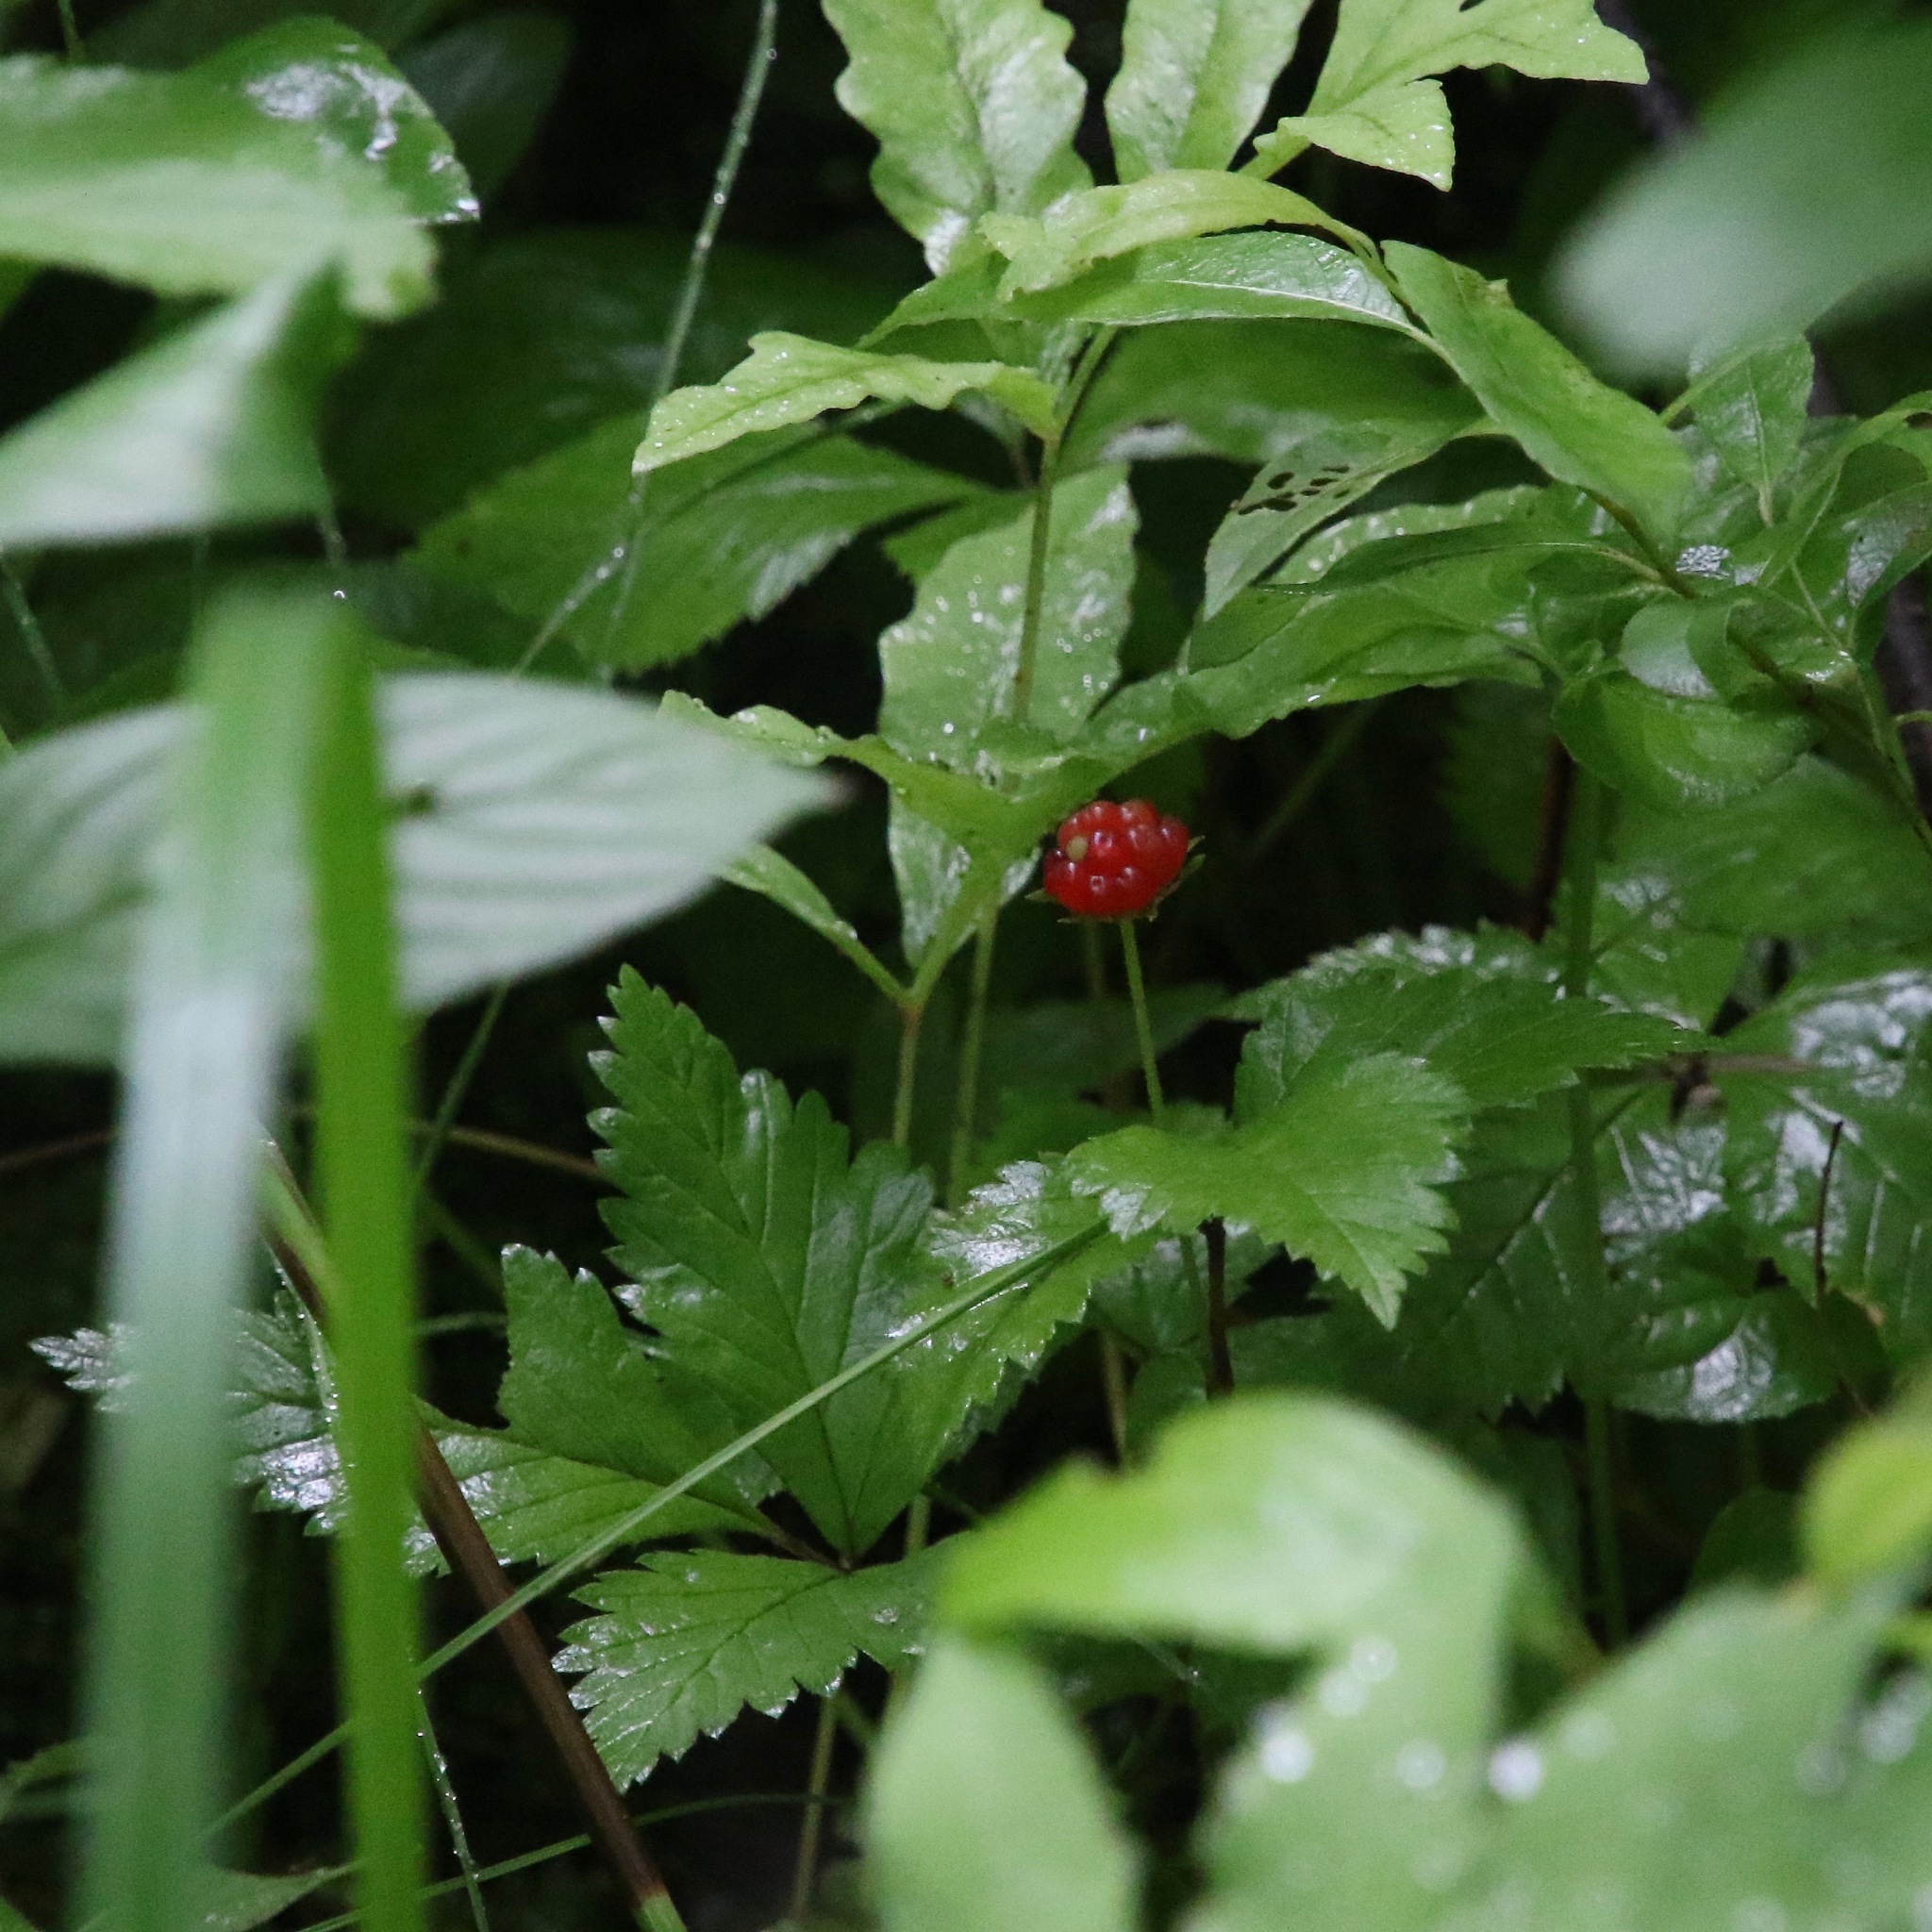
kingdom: Plantae
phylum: Tracheophyta
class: Magnoliopsida
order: Rosales
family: Rosaceae
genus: Rubus
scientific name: Rubus pubescens
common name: Dwarf raspberry
